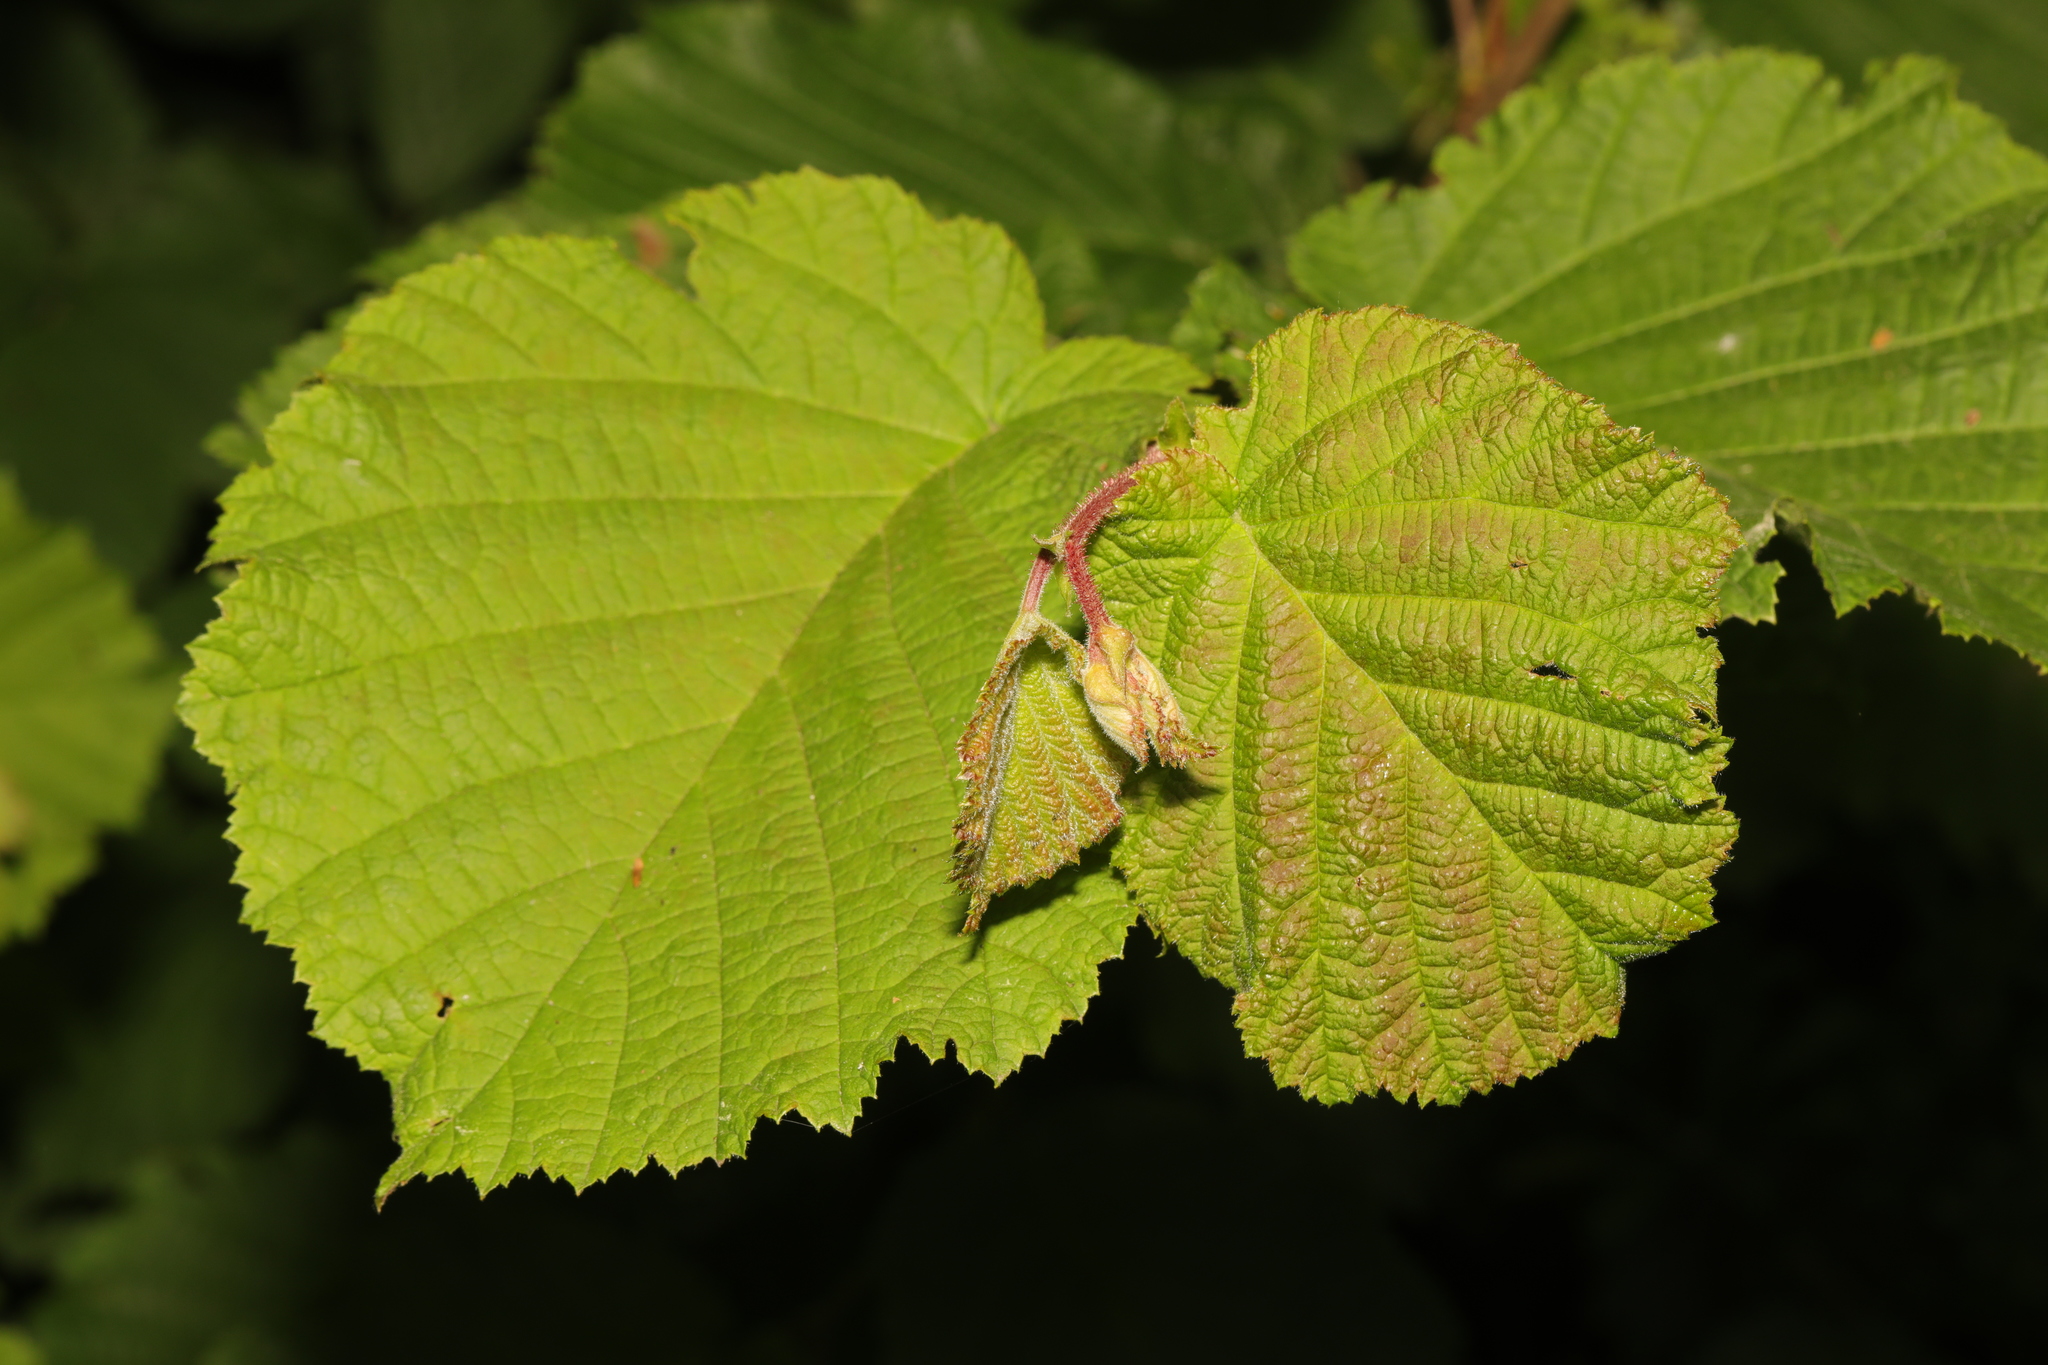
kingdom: Plantae
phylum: Tracheophyta
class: Magnoliopsida
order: Fagales
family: Betulaceae
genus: Corylus
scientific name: Corylus avellana
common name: European hazel
